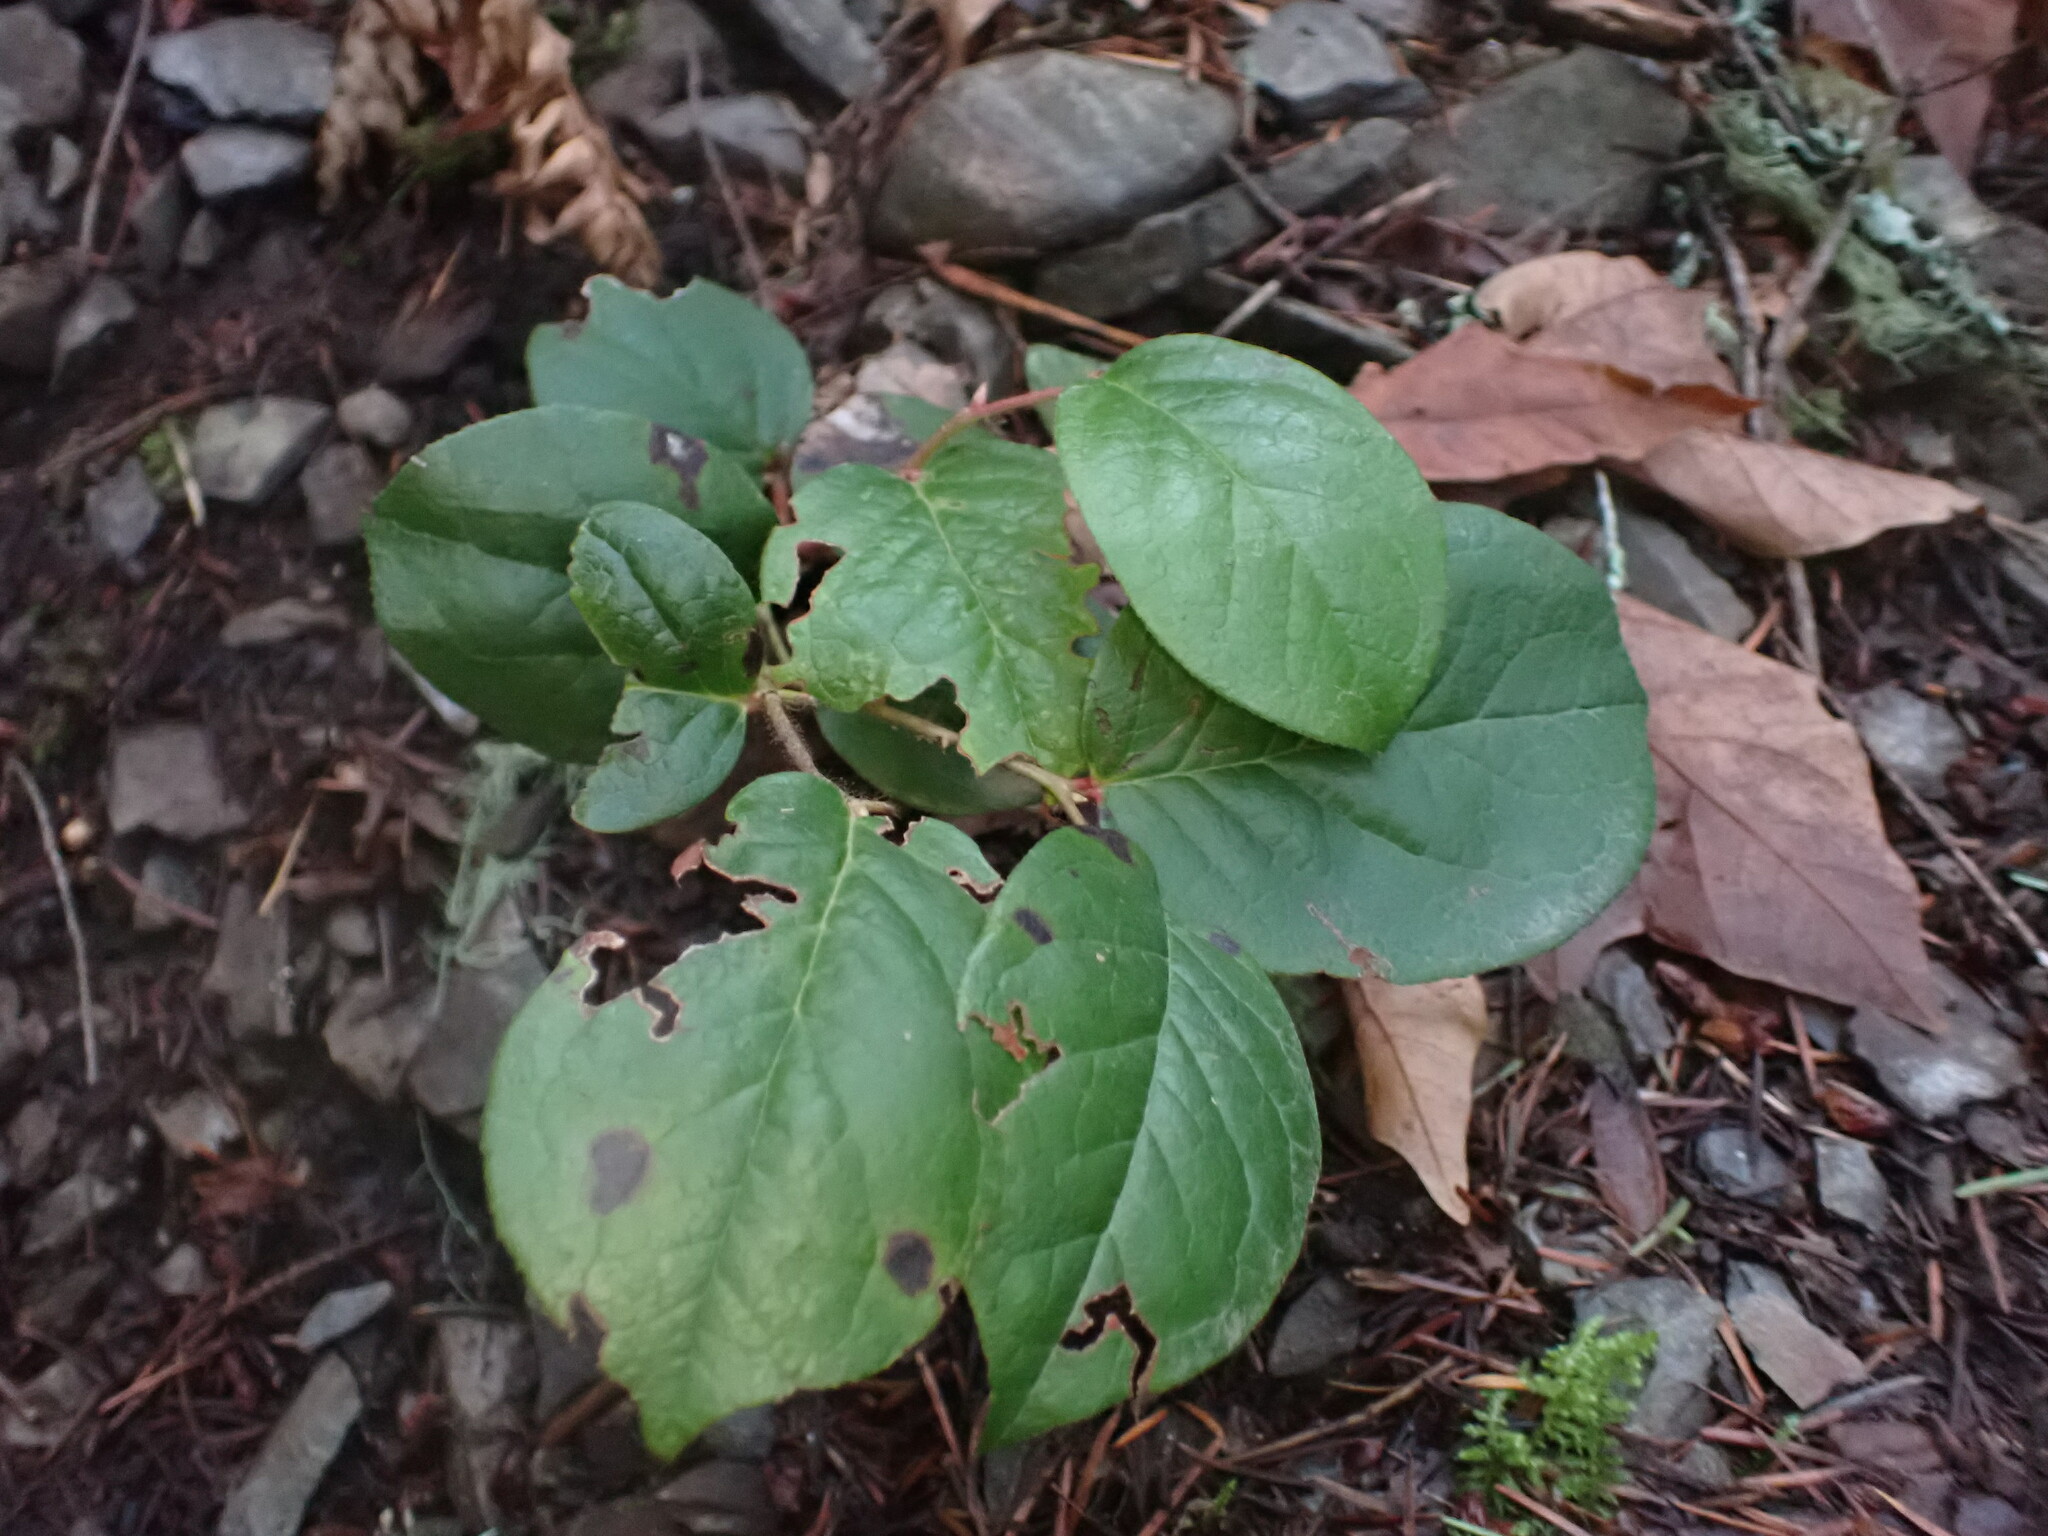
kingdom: Plantae
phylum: Tracheophyta
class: Magnoliopsida
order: Ericales
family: Ericaceae
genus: Gaultheria
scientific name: Gaultheria shallon
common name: Shallon
